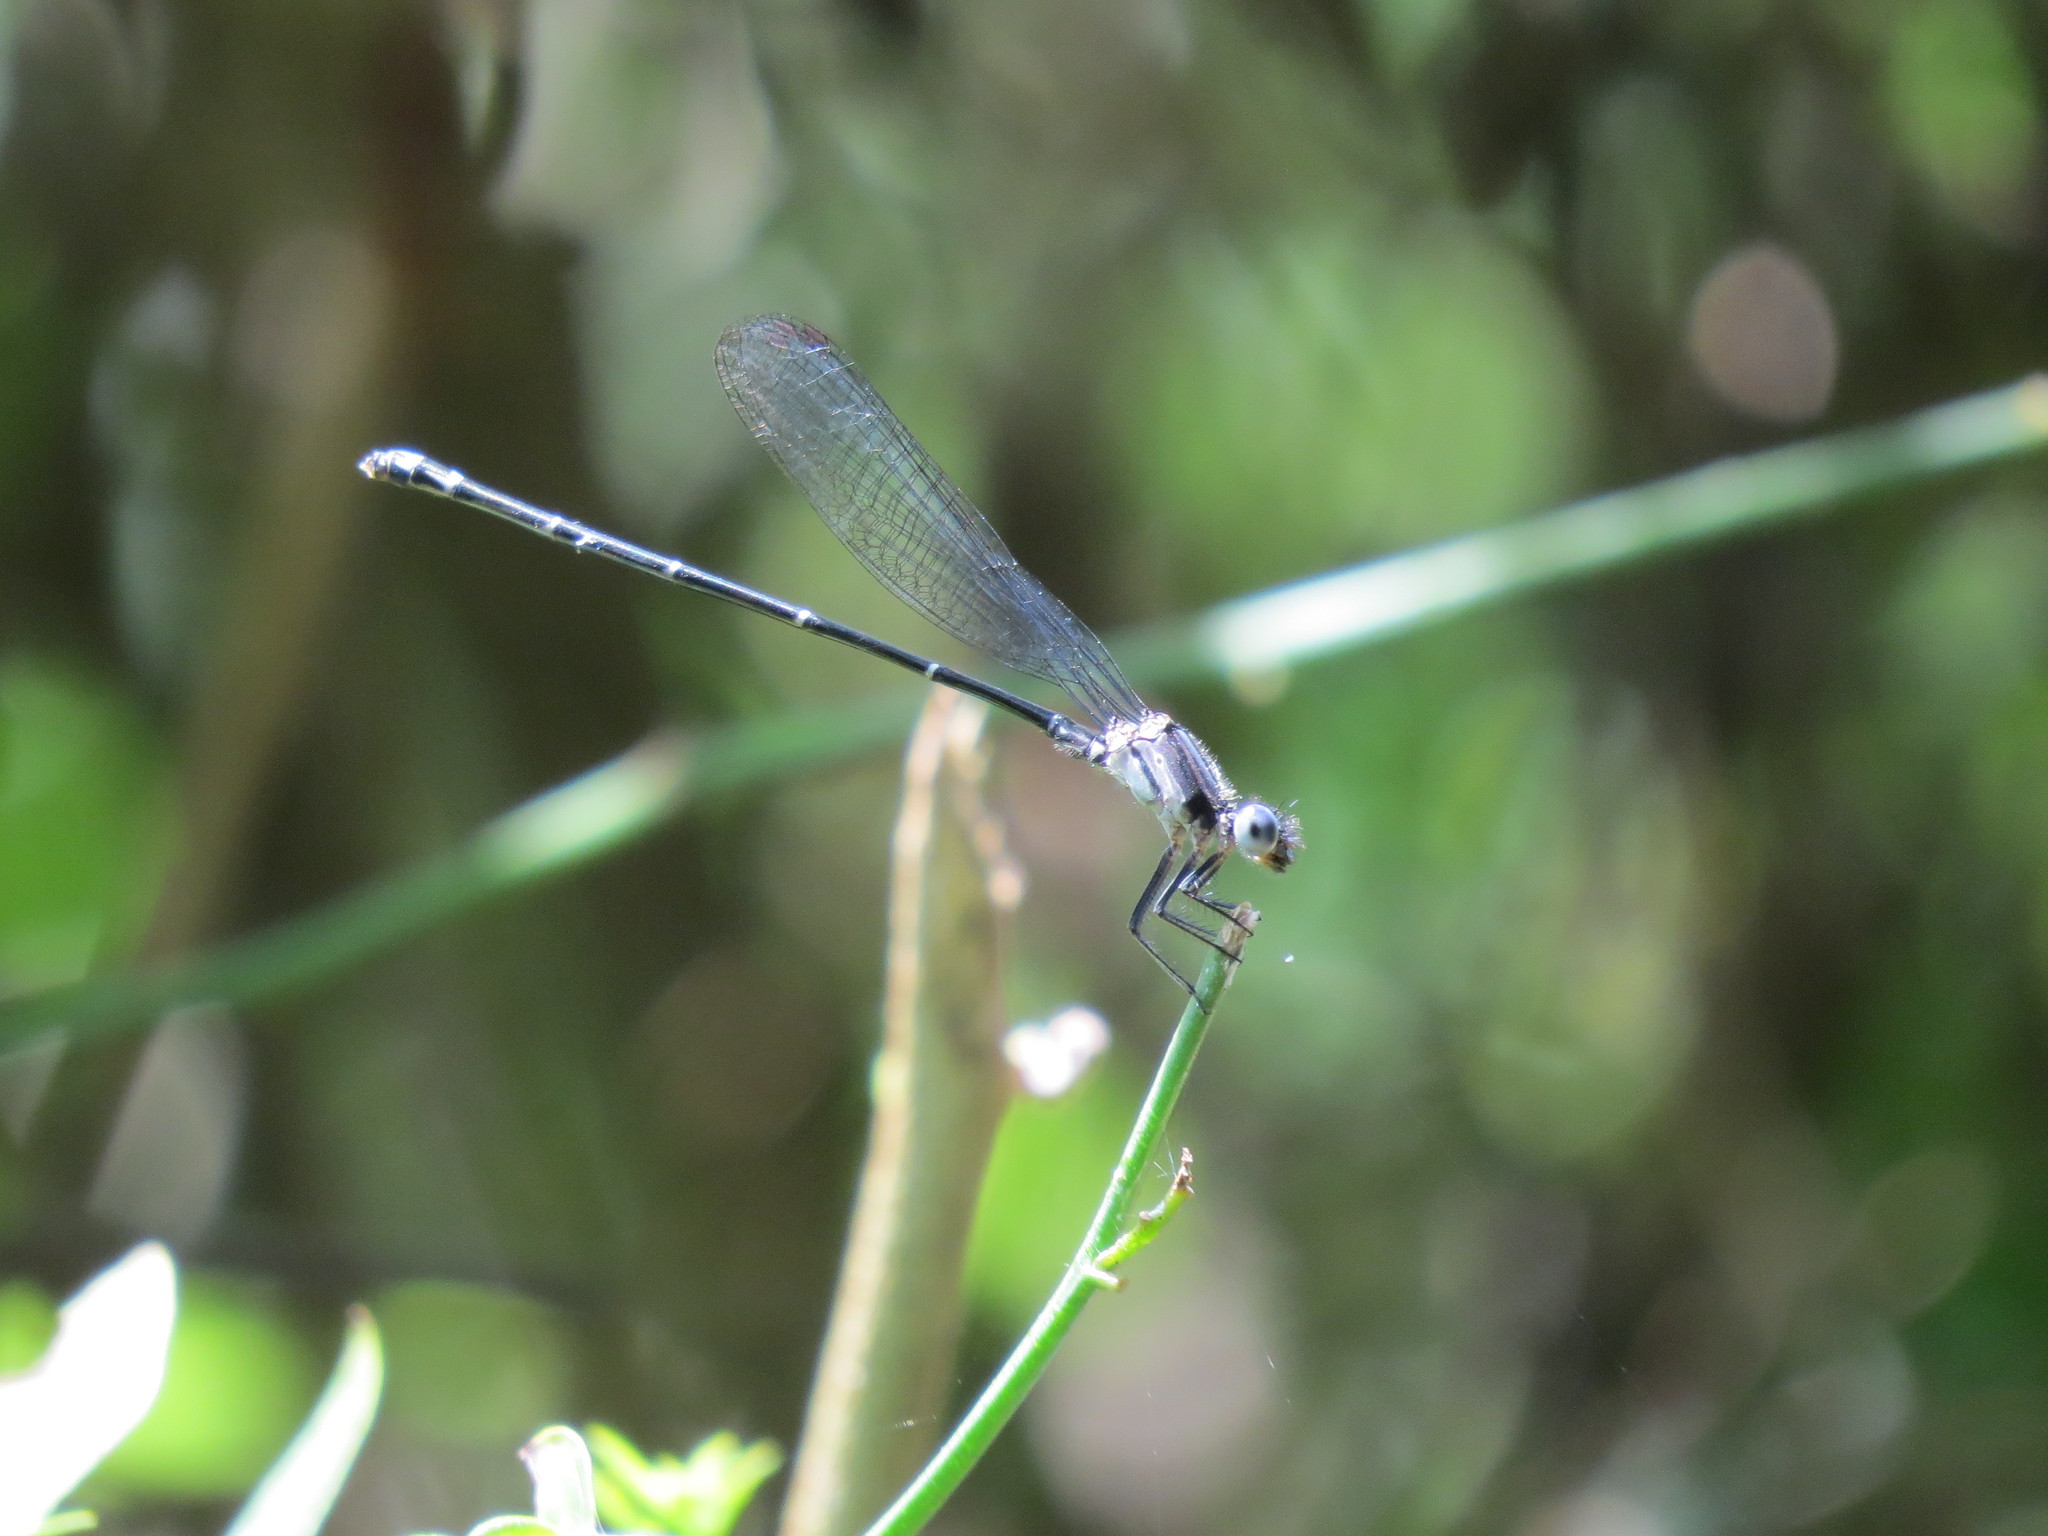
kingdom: Animalia
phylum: Arthropoda
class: Insecta
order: Odonata
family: Coenagrionidae
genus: Argia
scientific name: Argia moesta
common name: Powdered dancer
